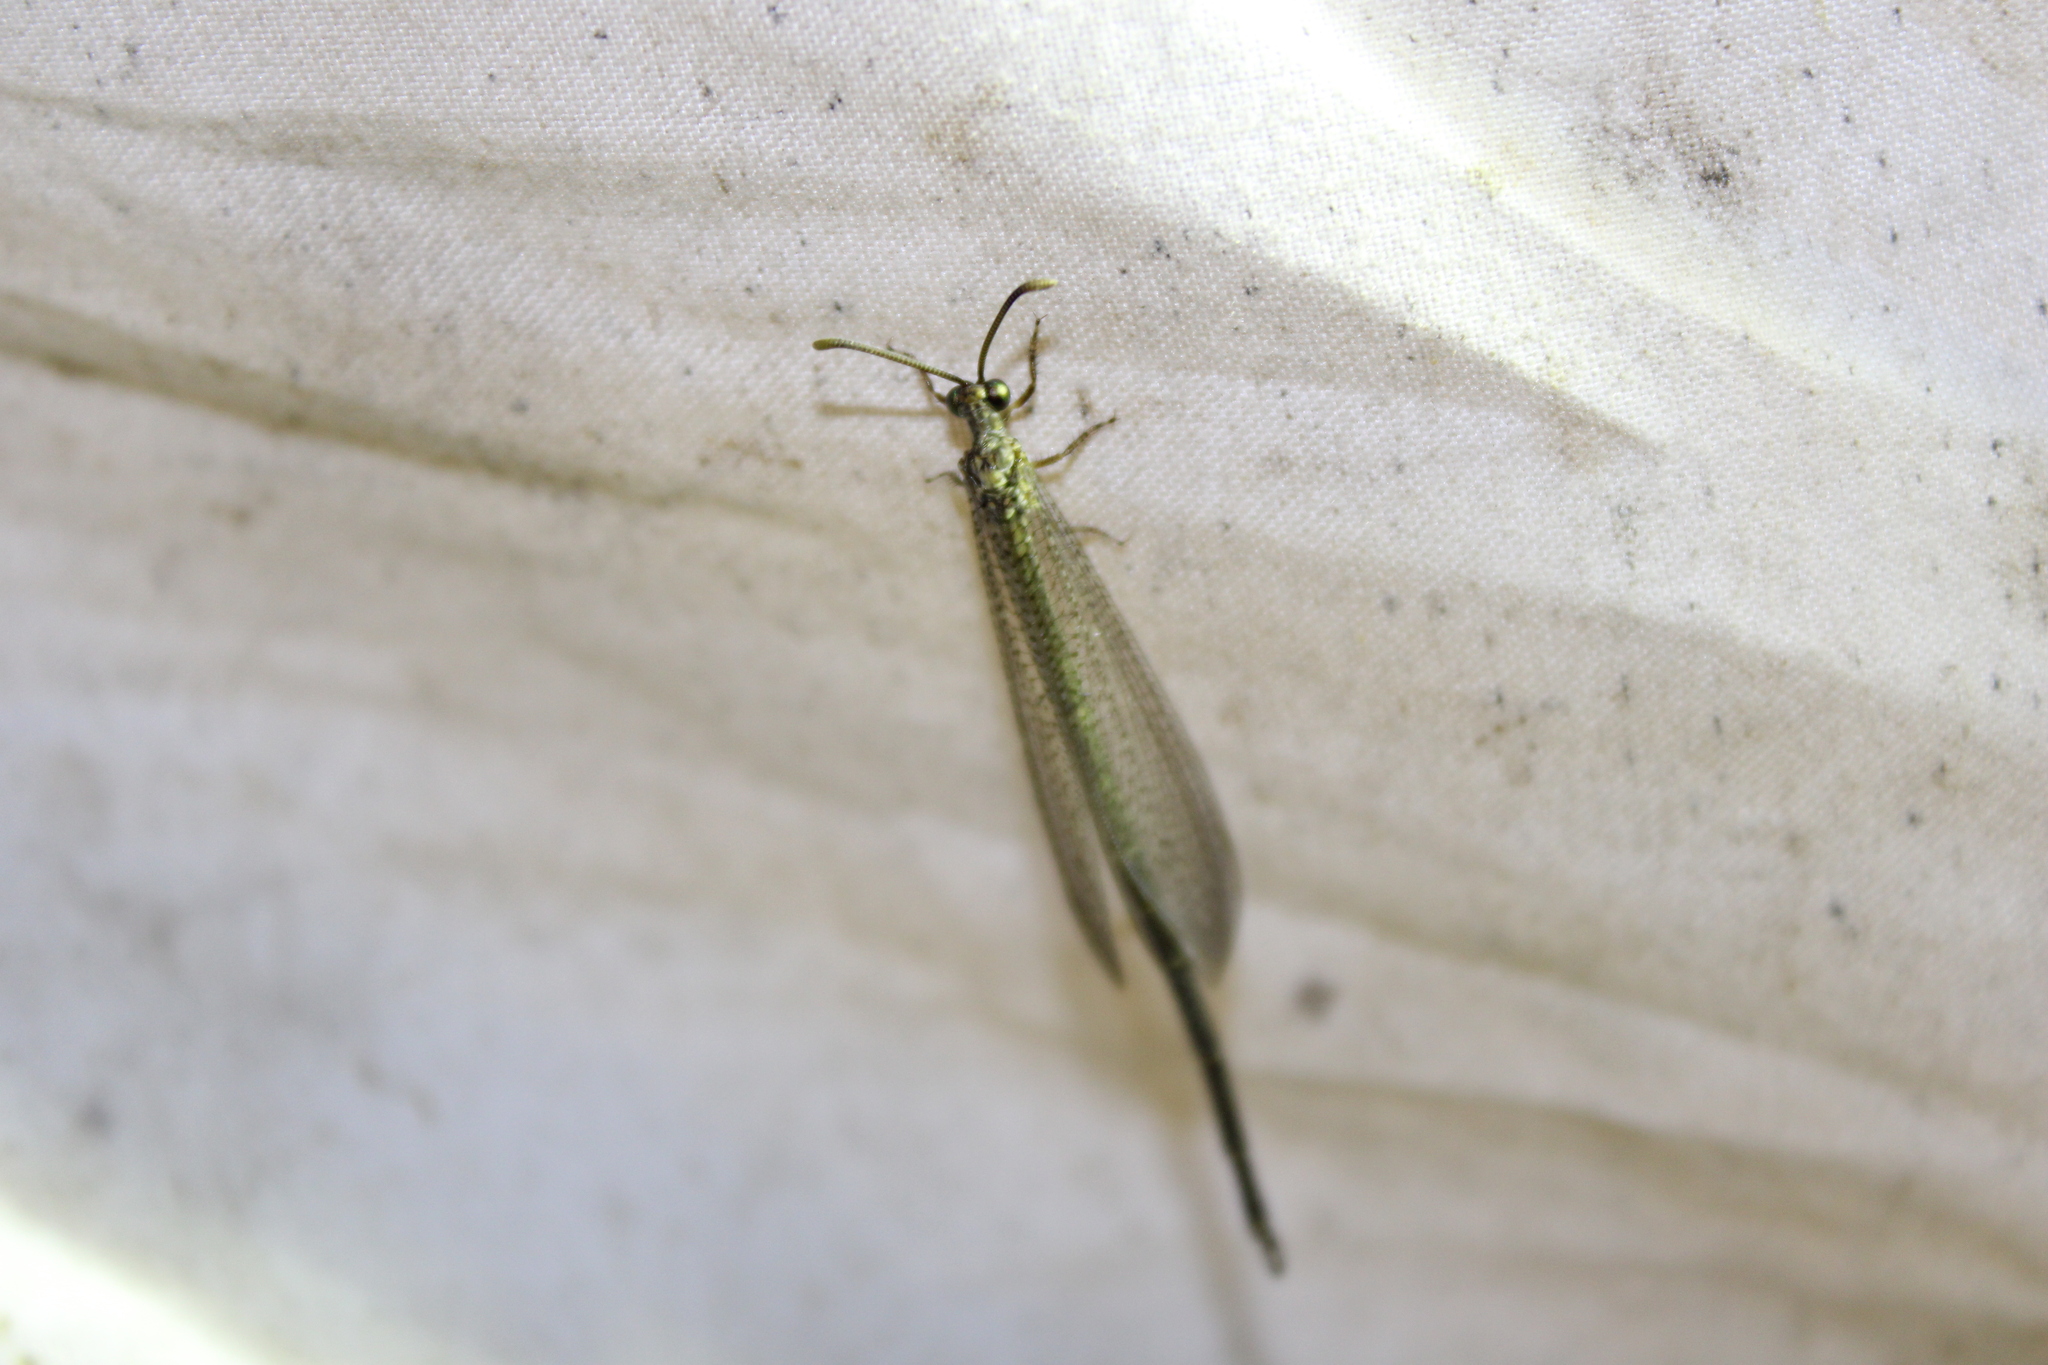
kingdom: Animalia
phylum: Arthropoda
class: Insecta
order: Neuroptera
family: Myrmeleontidae
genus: Brachynemurus
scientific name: Brachynemurus abdominalis
